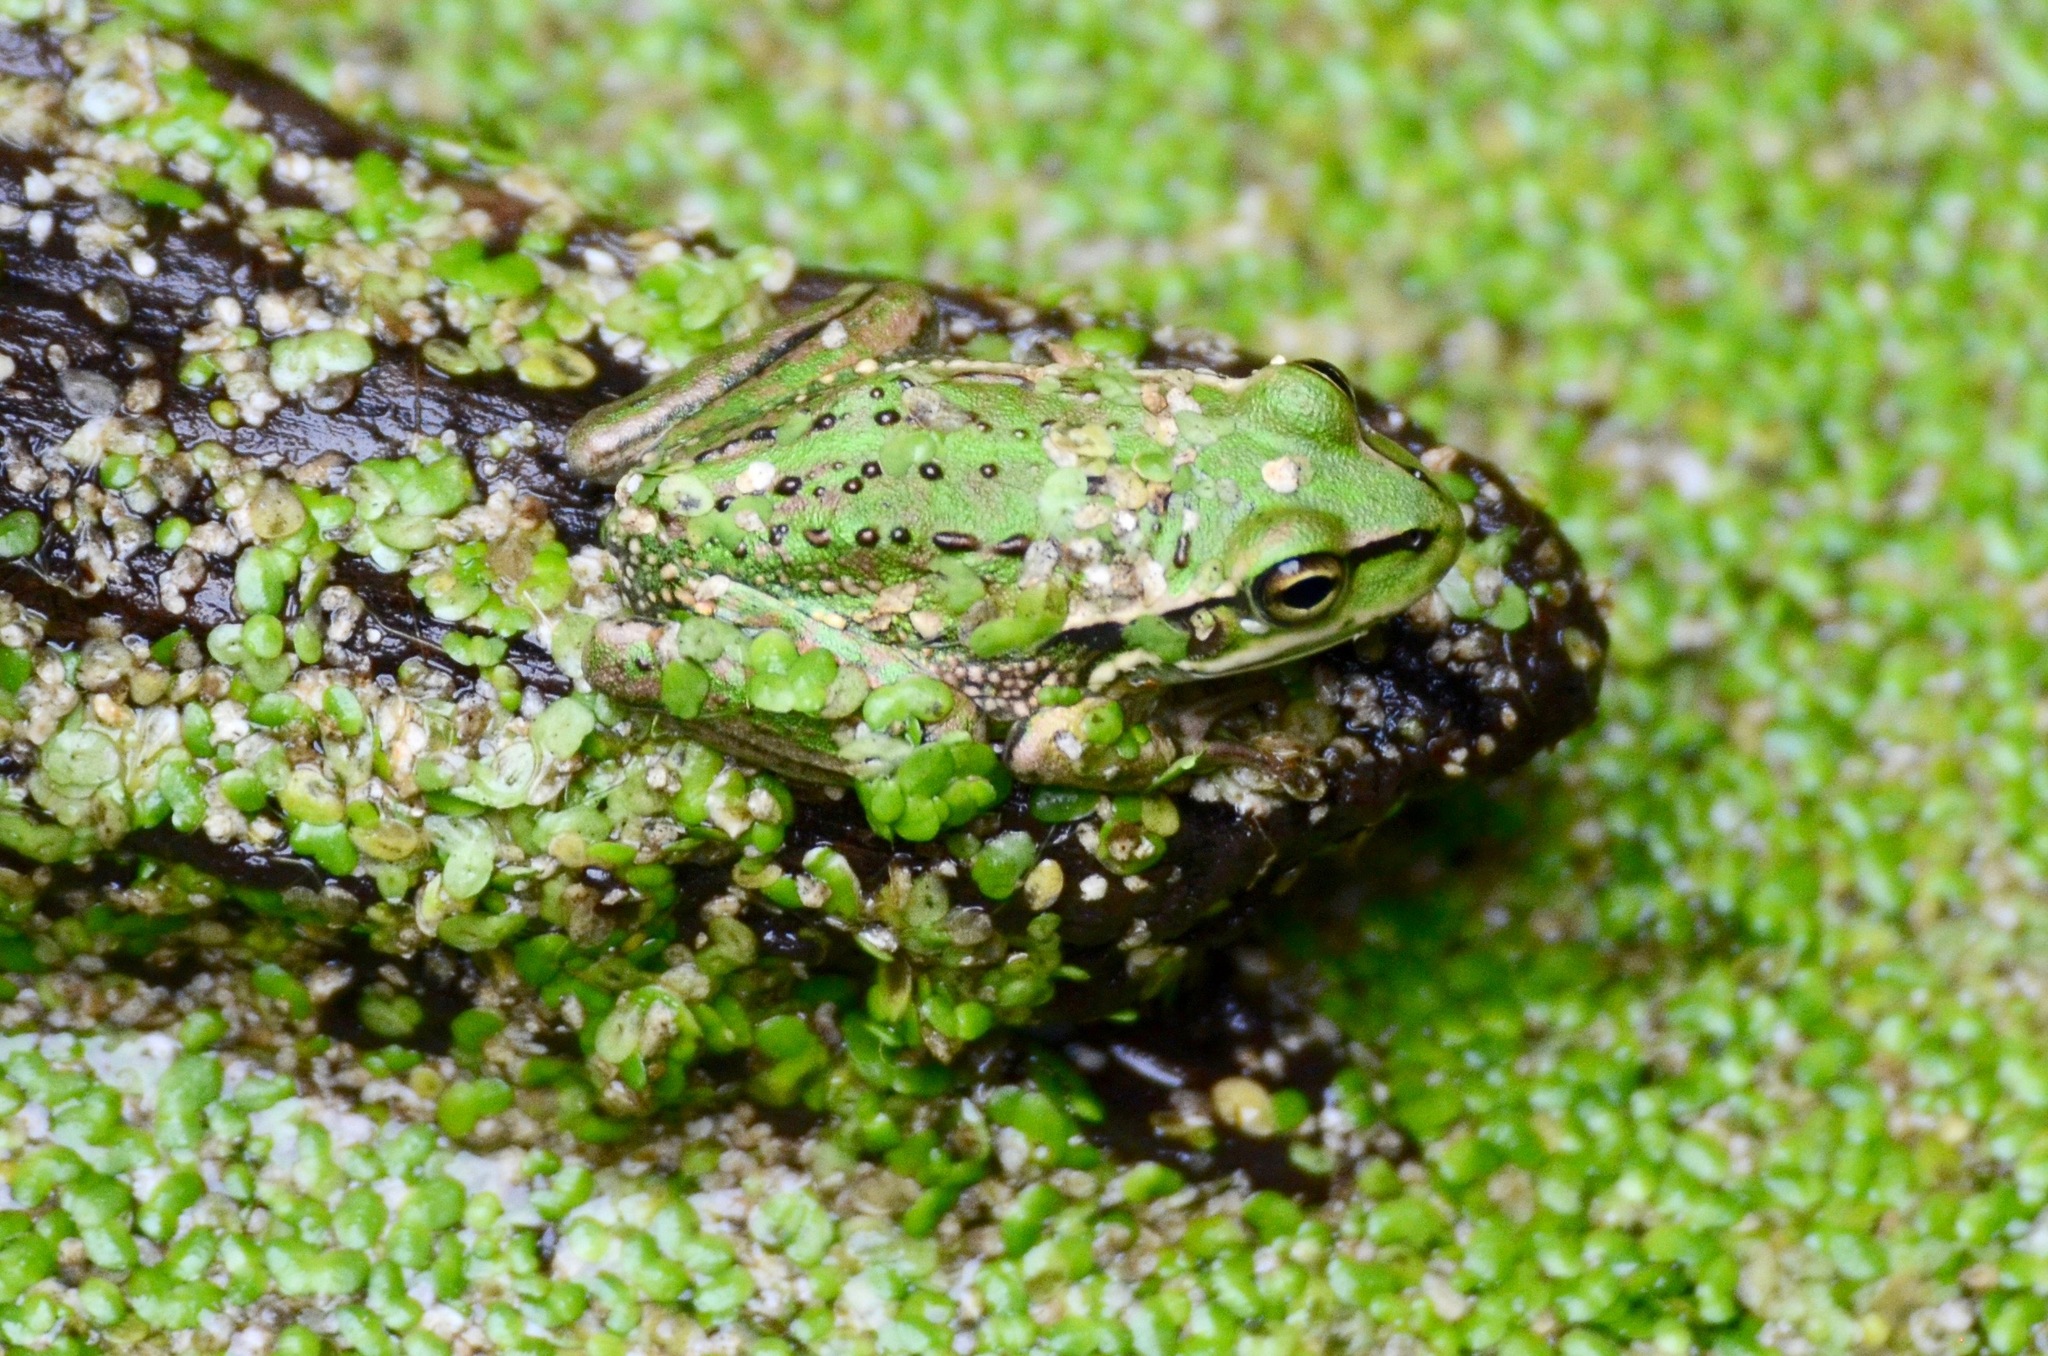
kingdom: Animalia
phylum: Chordata
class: Amphibia
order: Anura
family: Pelodryadidae
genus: Ranoidea
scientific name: Ranoidea raniformis
